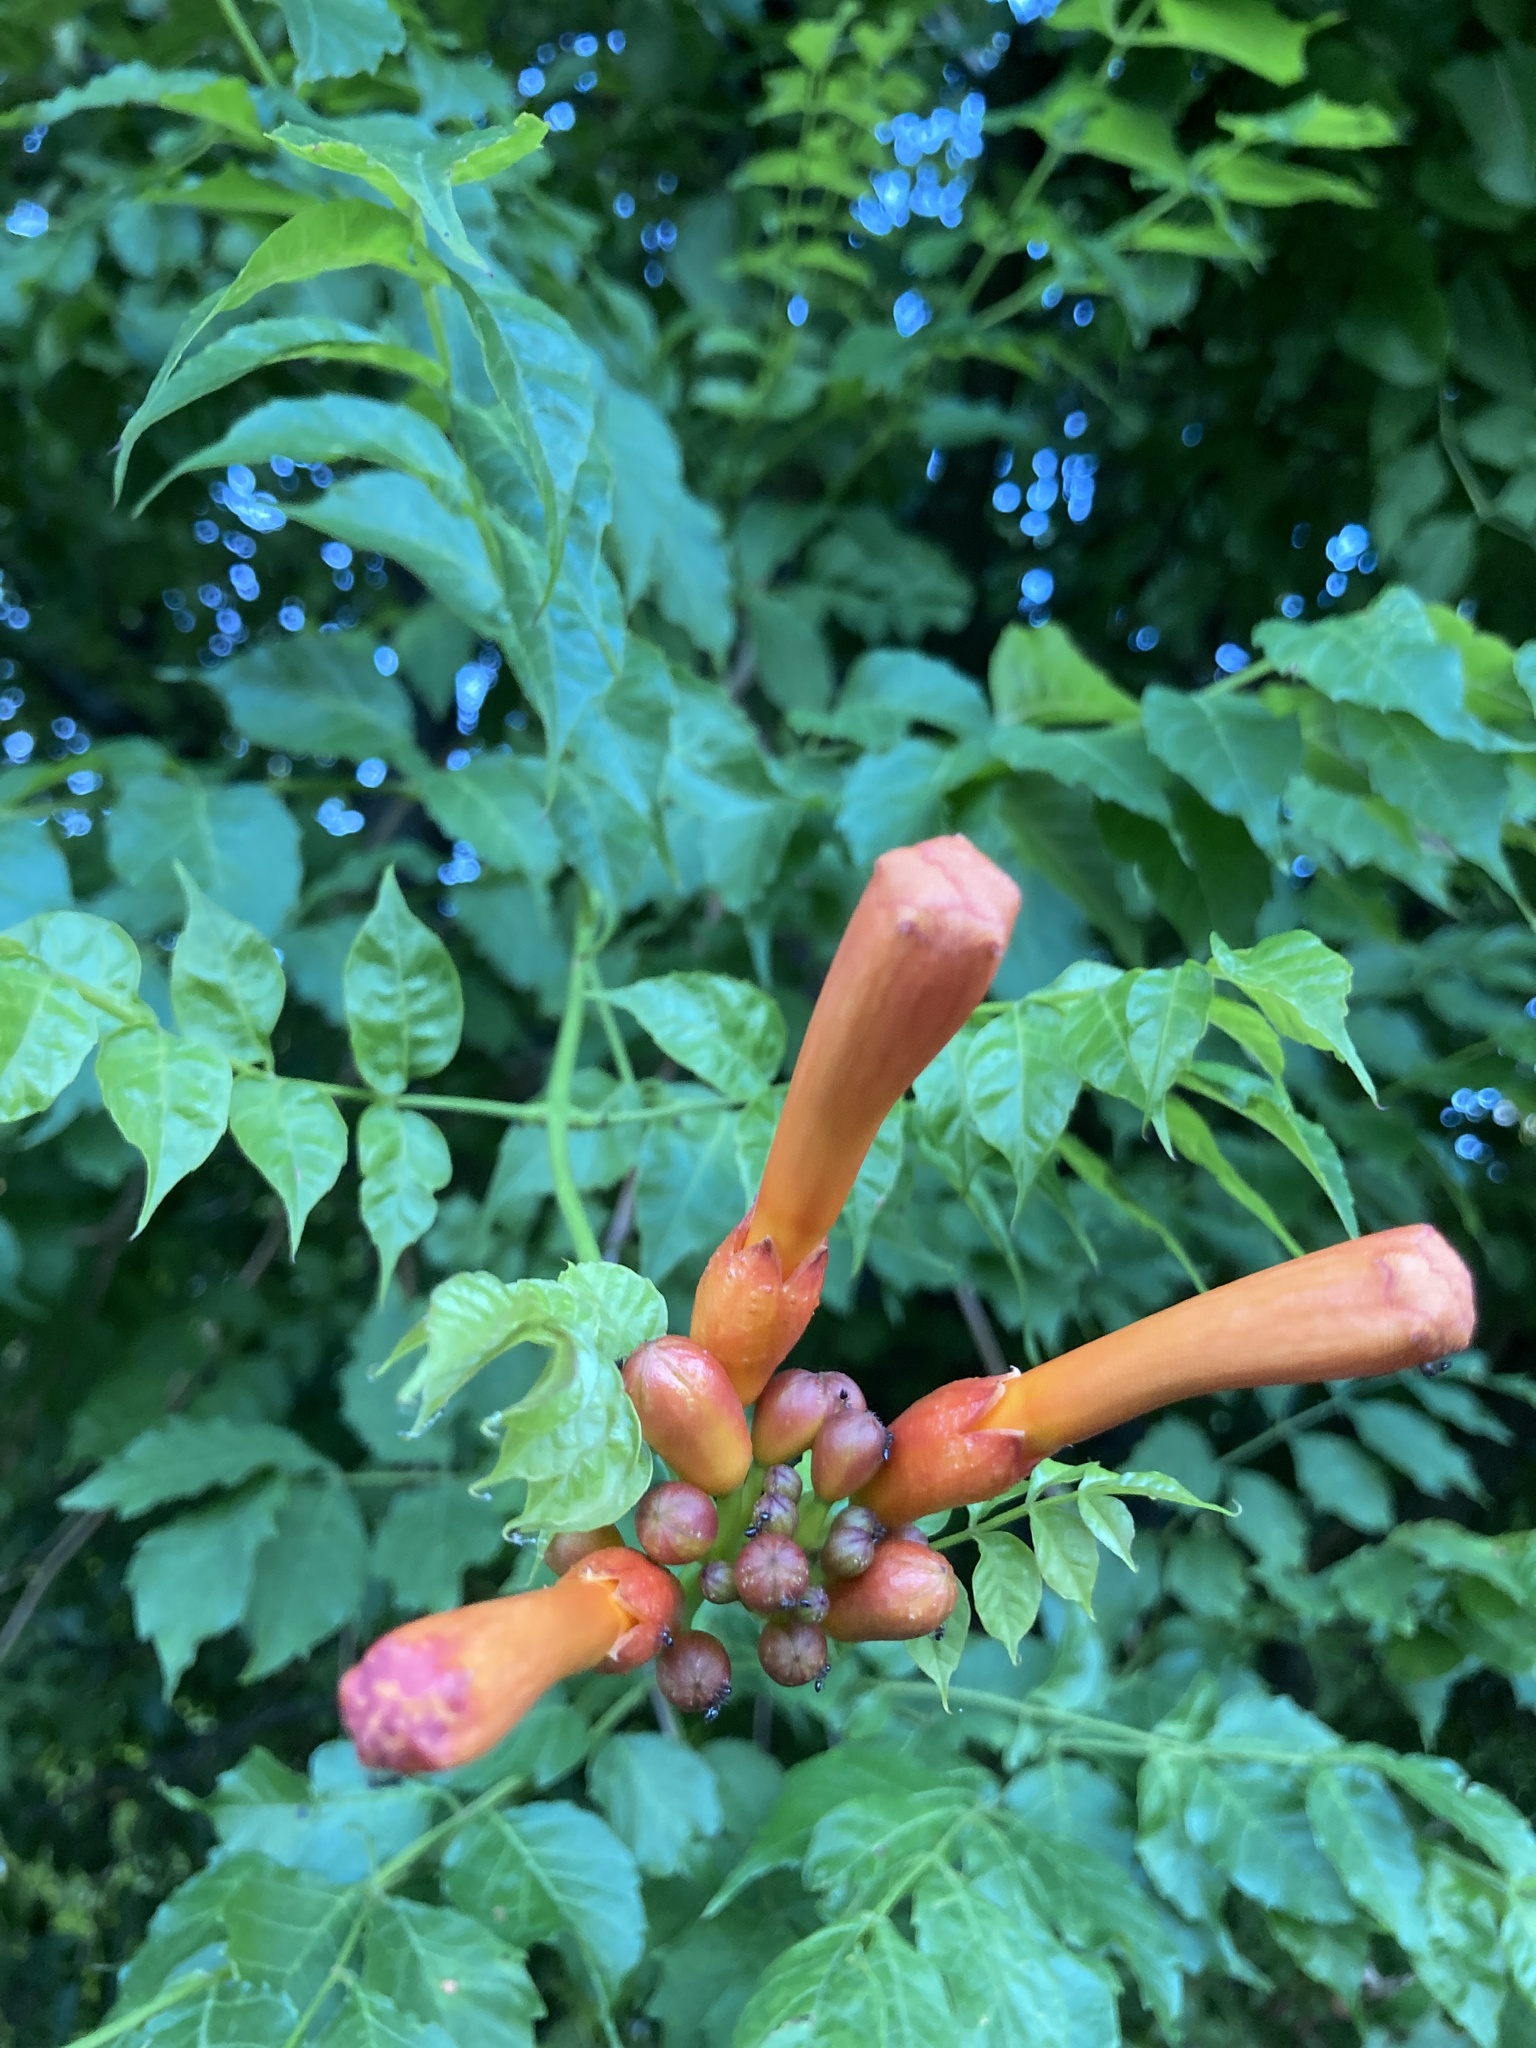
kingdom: Plantae
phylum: Tracheophyta
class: Magnoliopsida
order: Lamiales
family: Bignoniaceae
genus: Campsis
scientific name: Campsis radicans
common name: Trumpet-creeper
